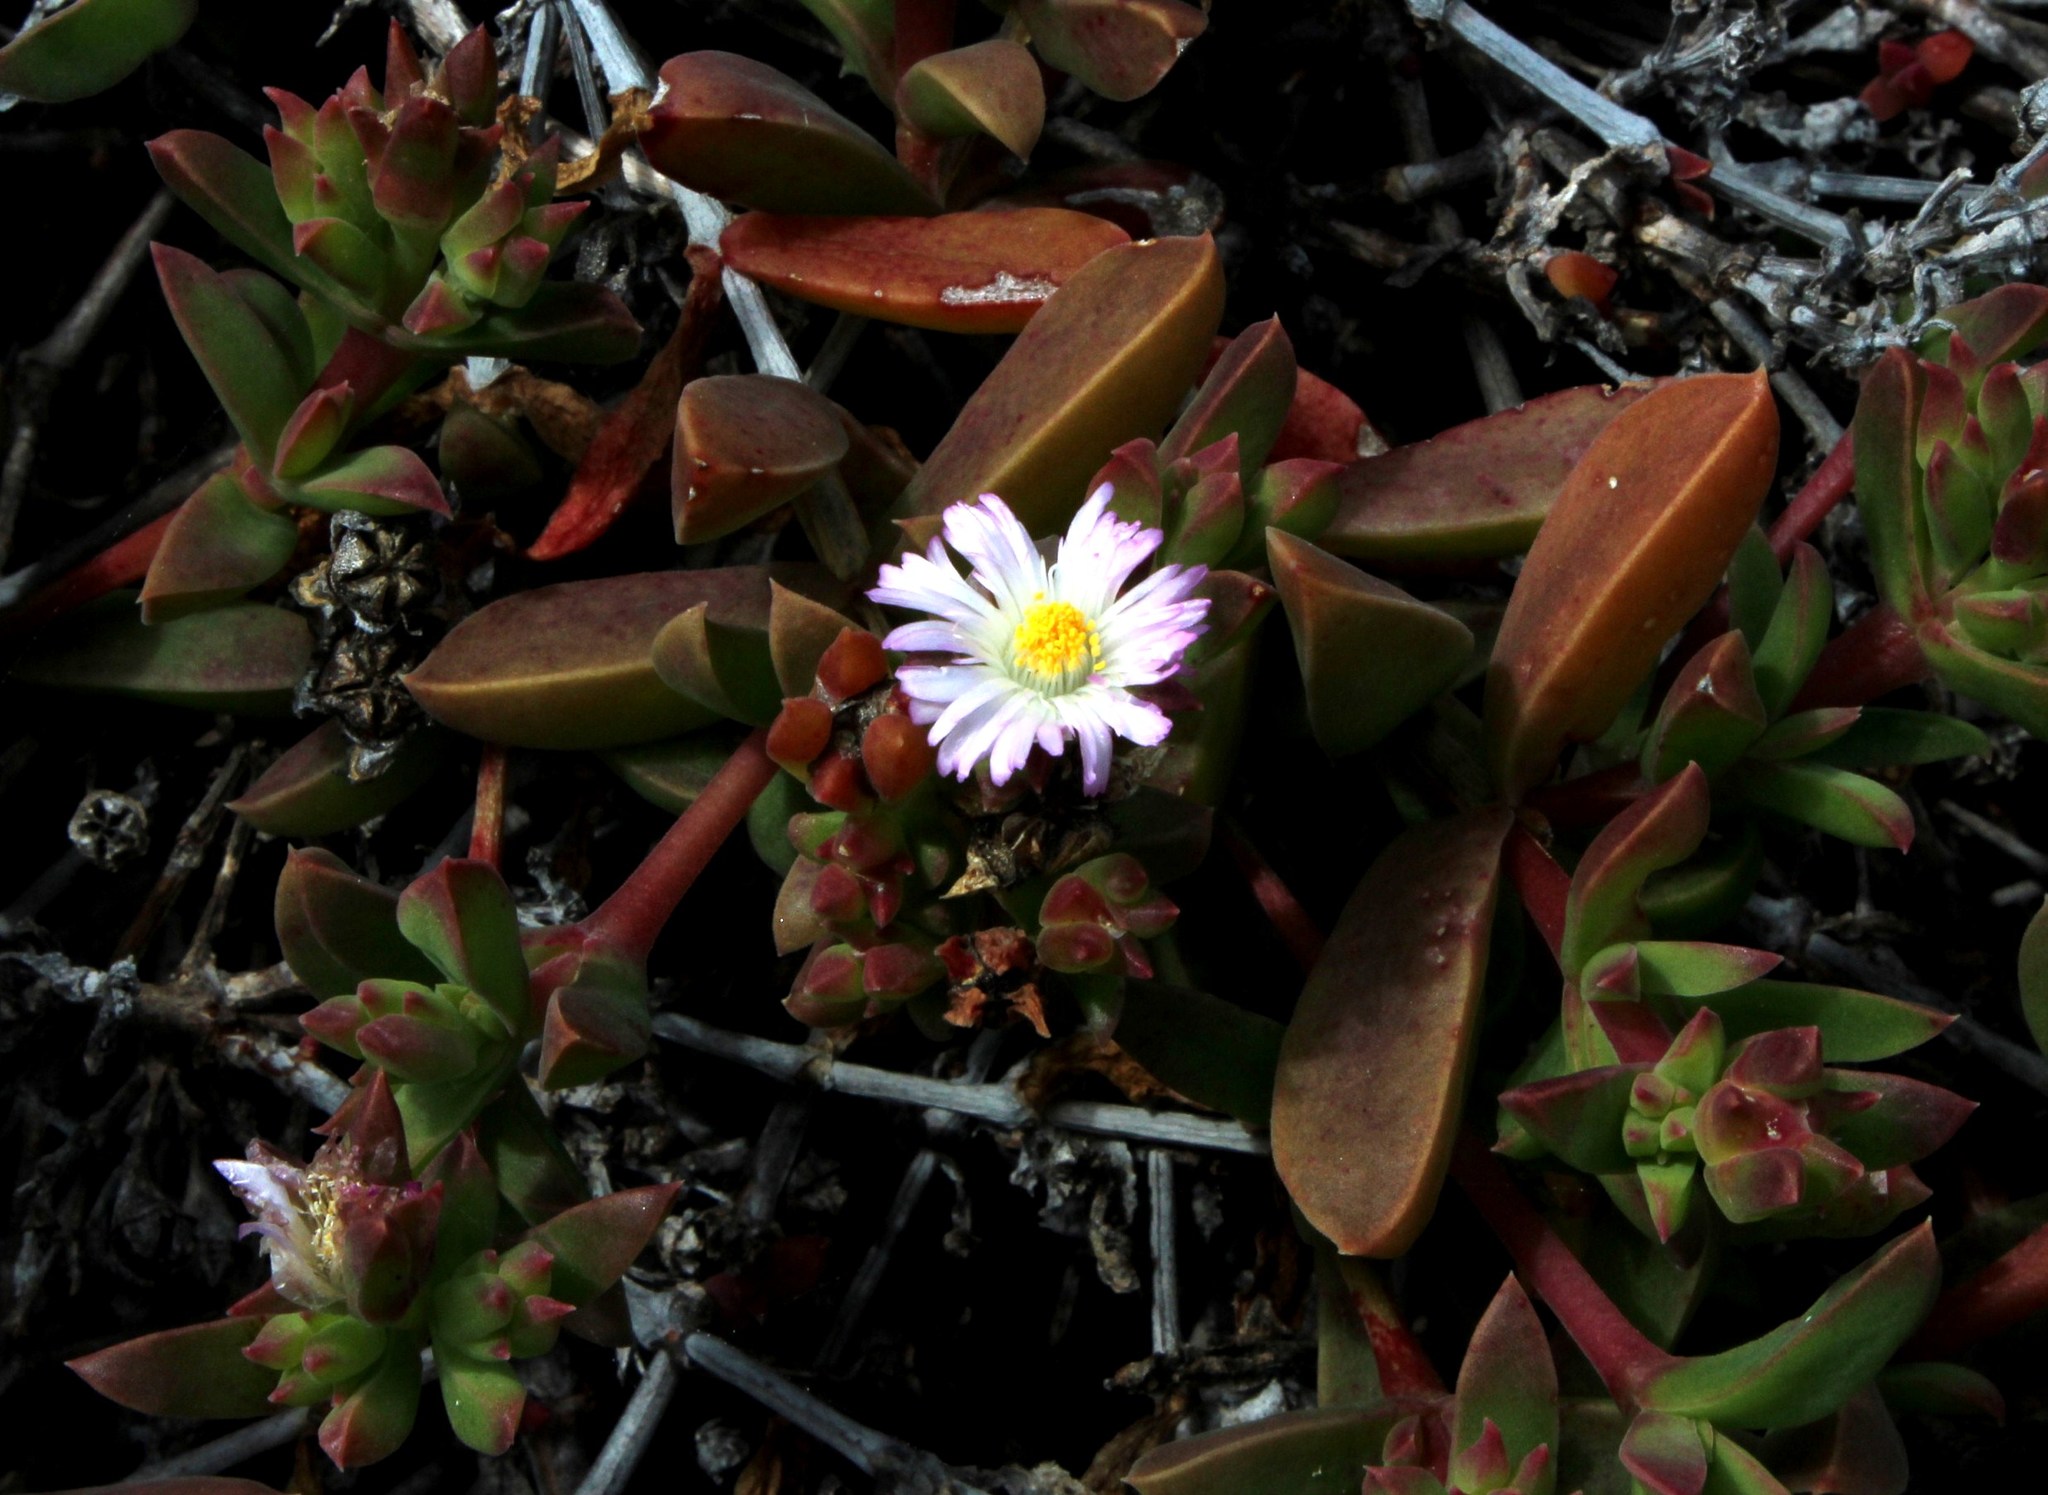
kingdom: Plantae
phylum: Tracheophyta
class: Magnoliopsida
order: Caryophyllales
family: Aizoaceae
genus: Delosperma
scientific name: Delosperma patersoniae
